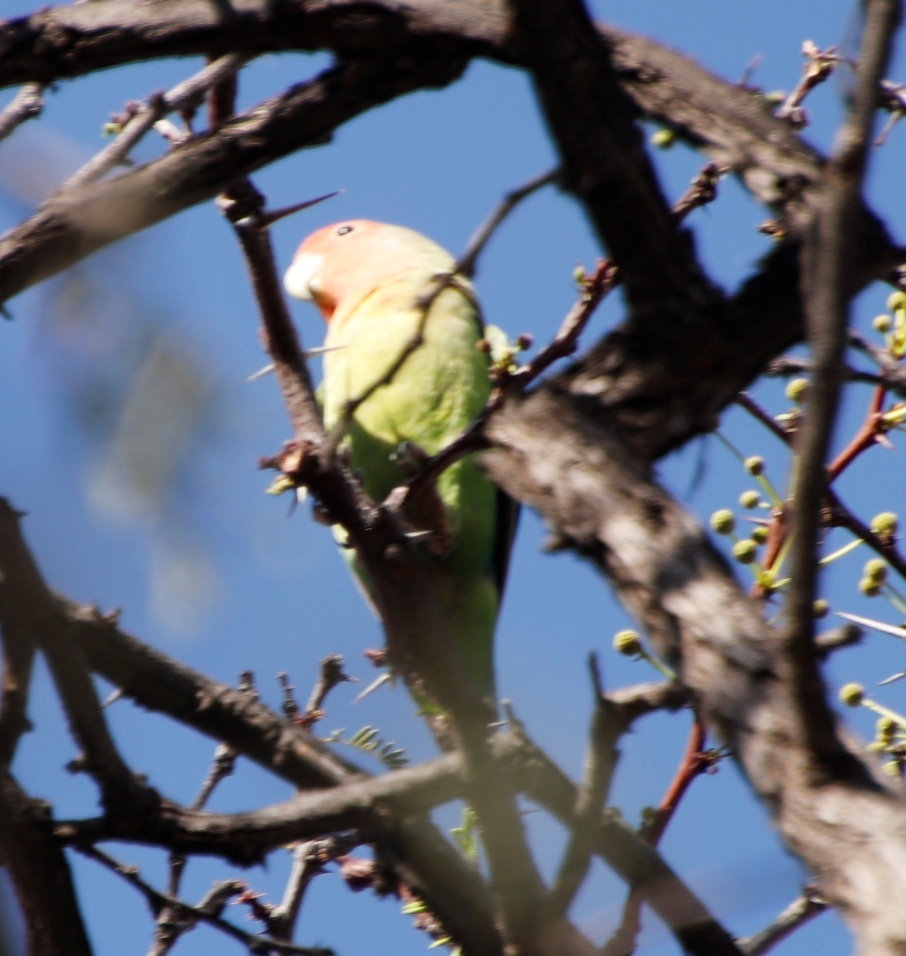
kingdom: Animalia
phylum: Chordata
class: Aves
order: Psittaciformes
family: Psittacidae
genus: Agapornis
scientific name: Agapornis roseicollis
